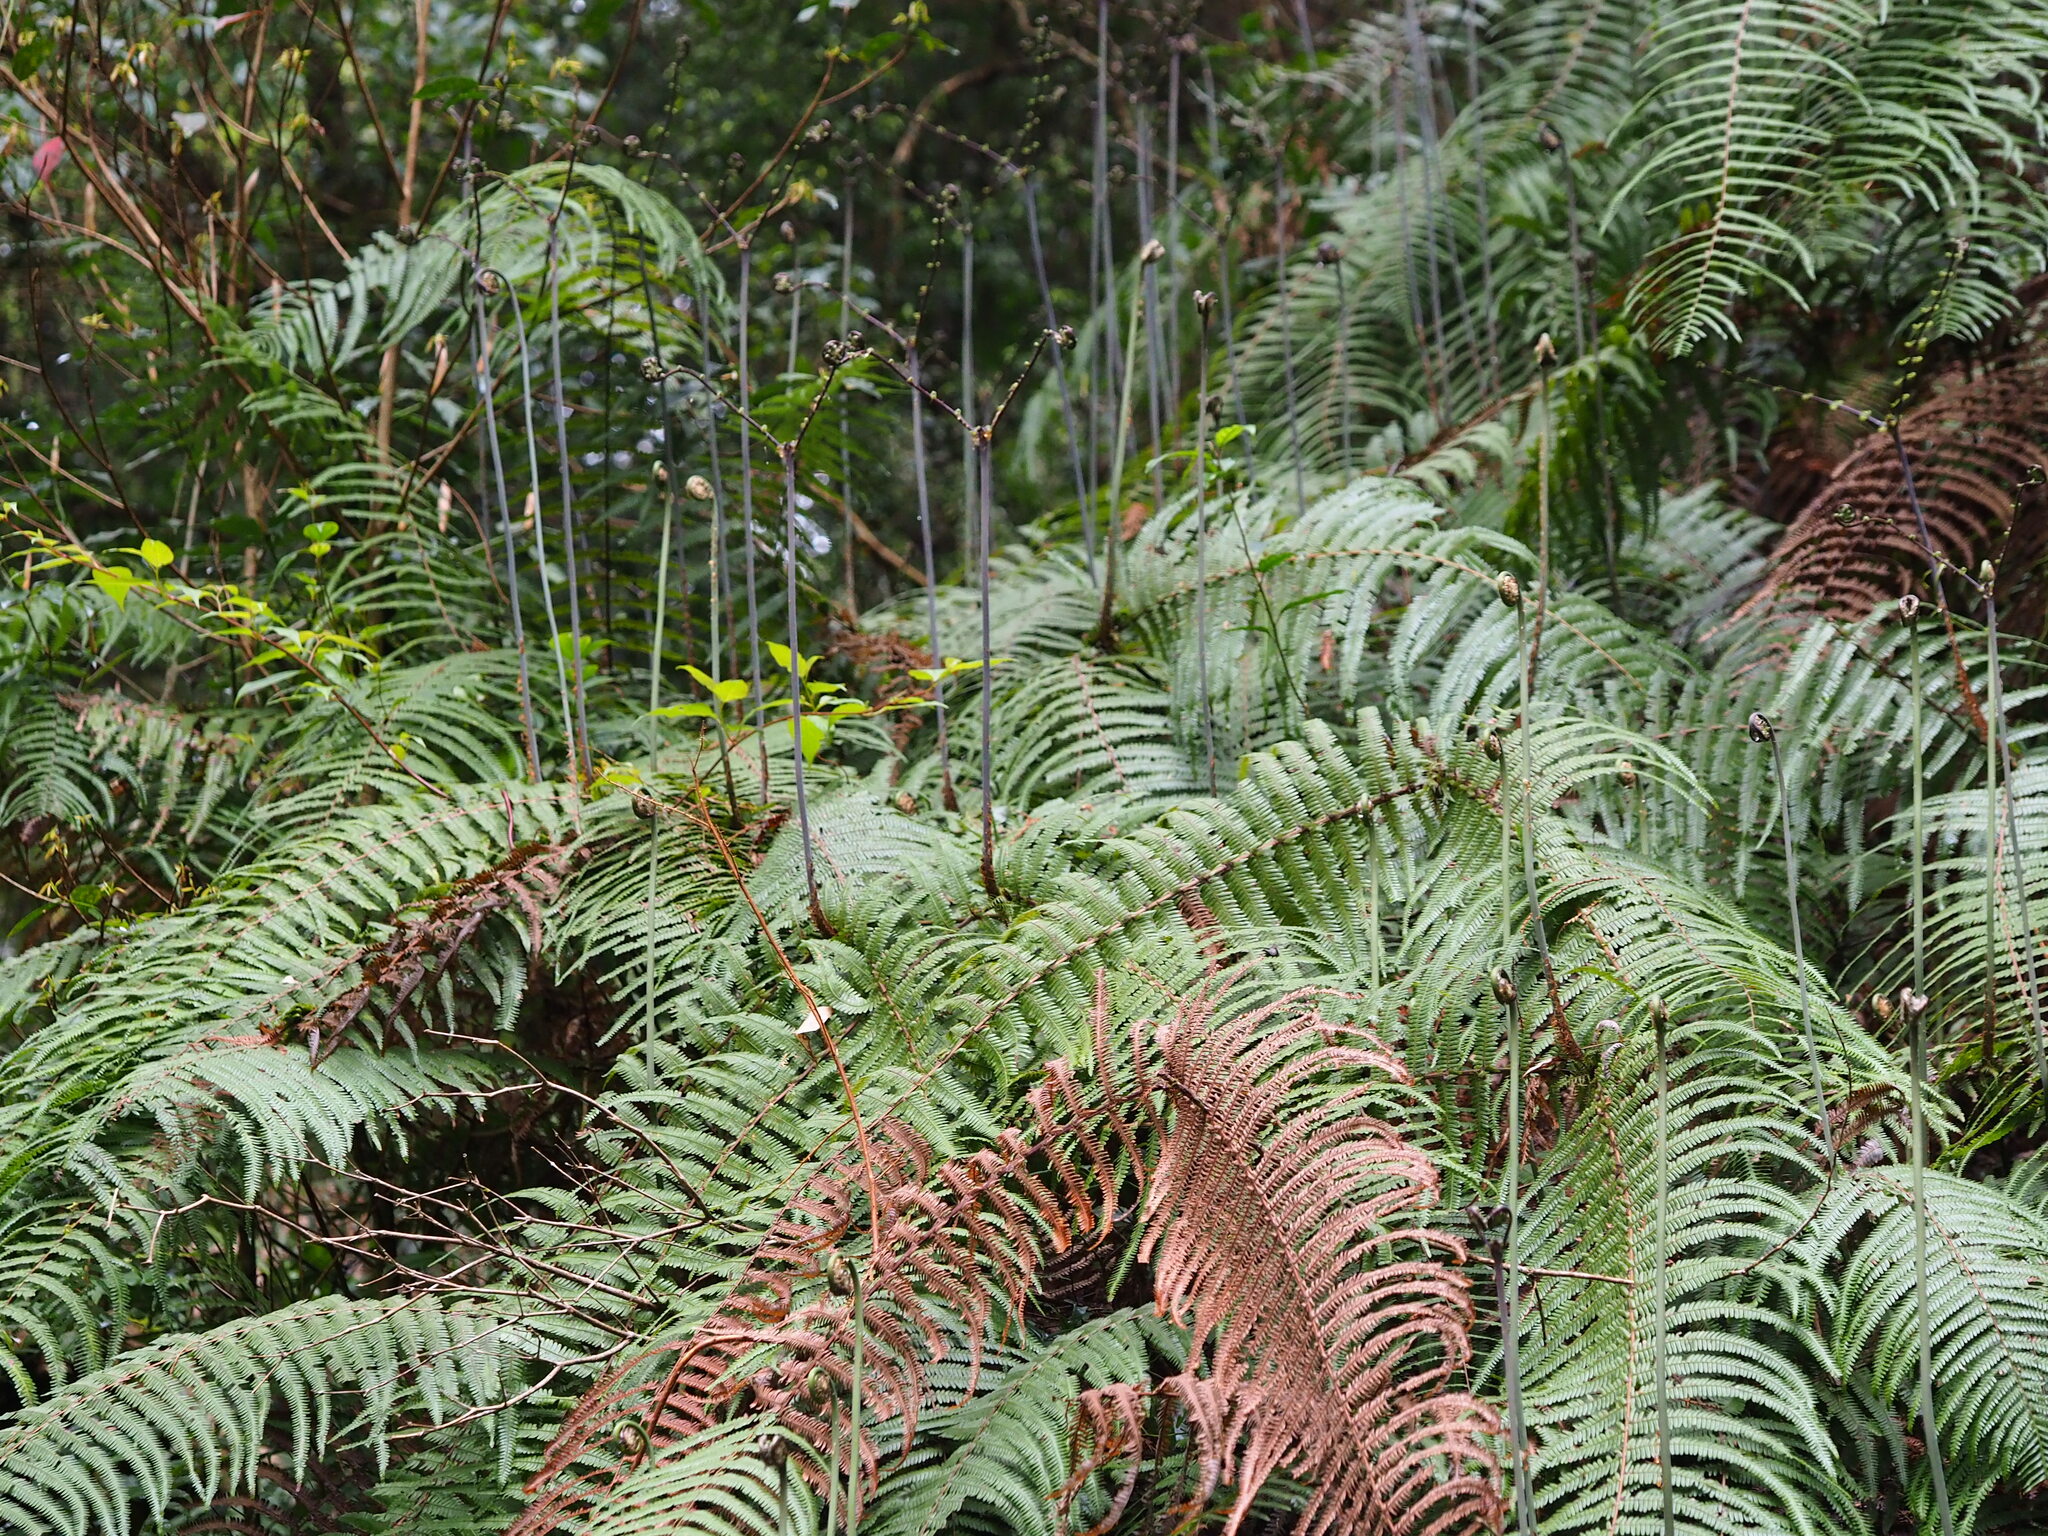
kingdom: Plantae
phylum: Tracheophyta
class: Polypodiopsida
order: Gleicheniales
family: Gleicheniaceae
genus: Diplopterygium
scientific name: Diplopterygium glaucum
